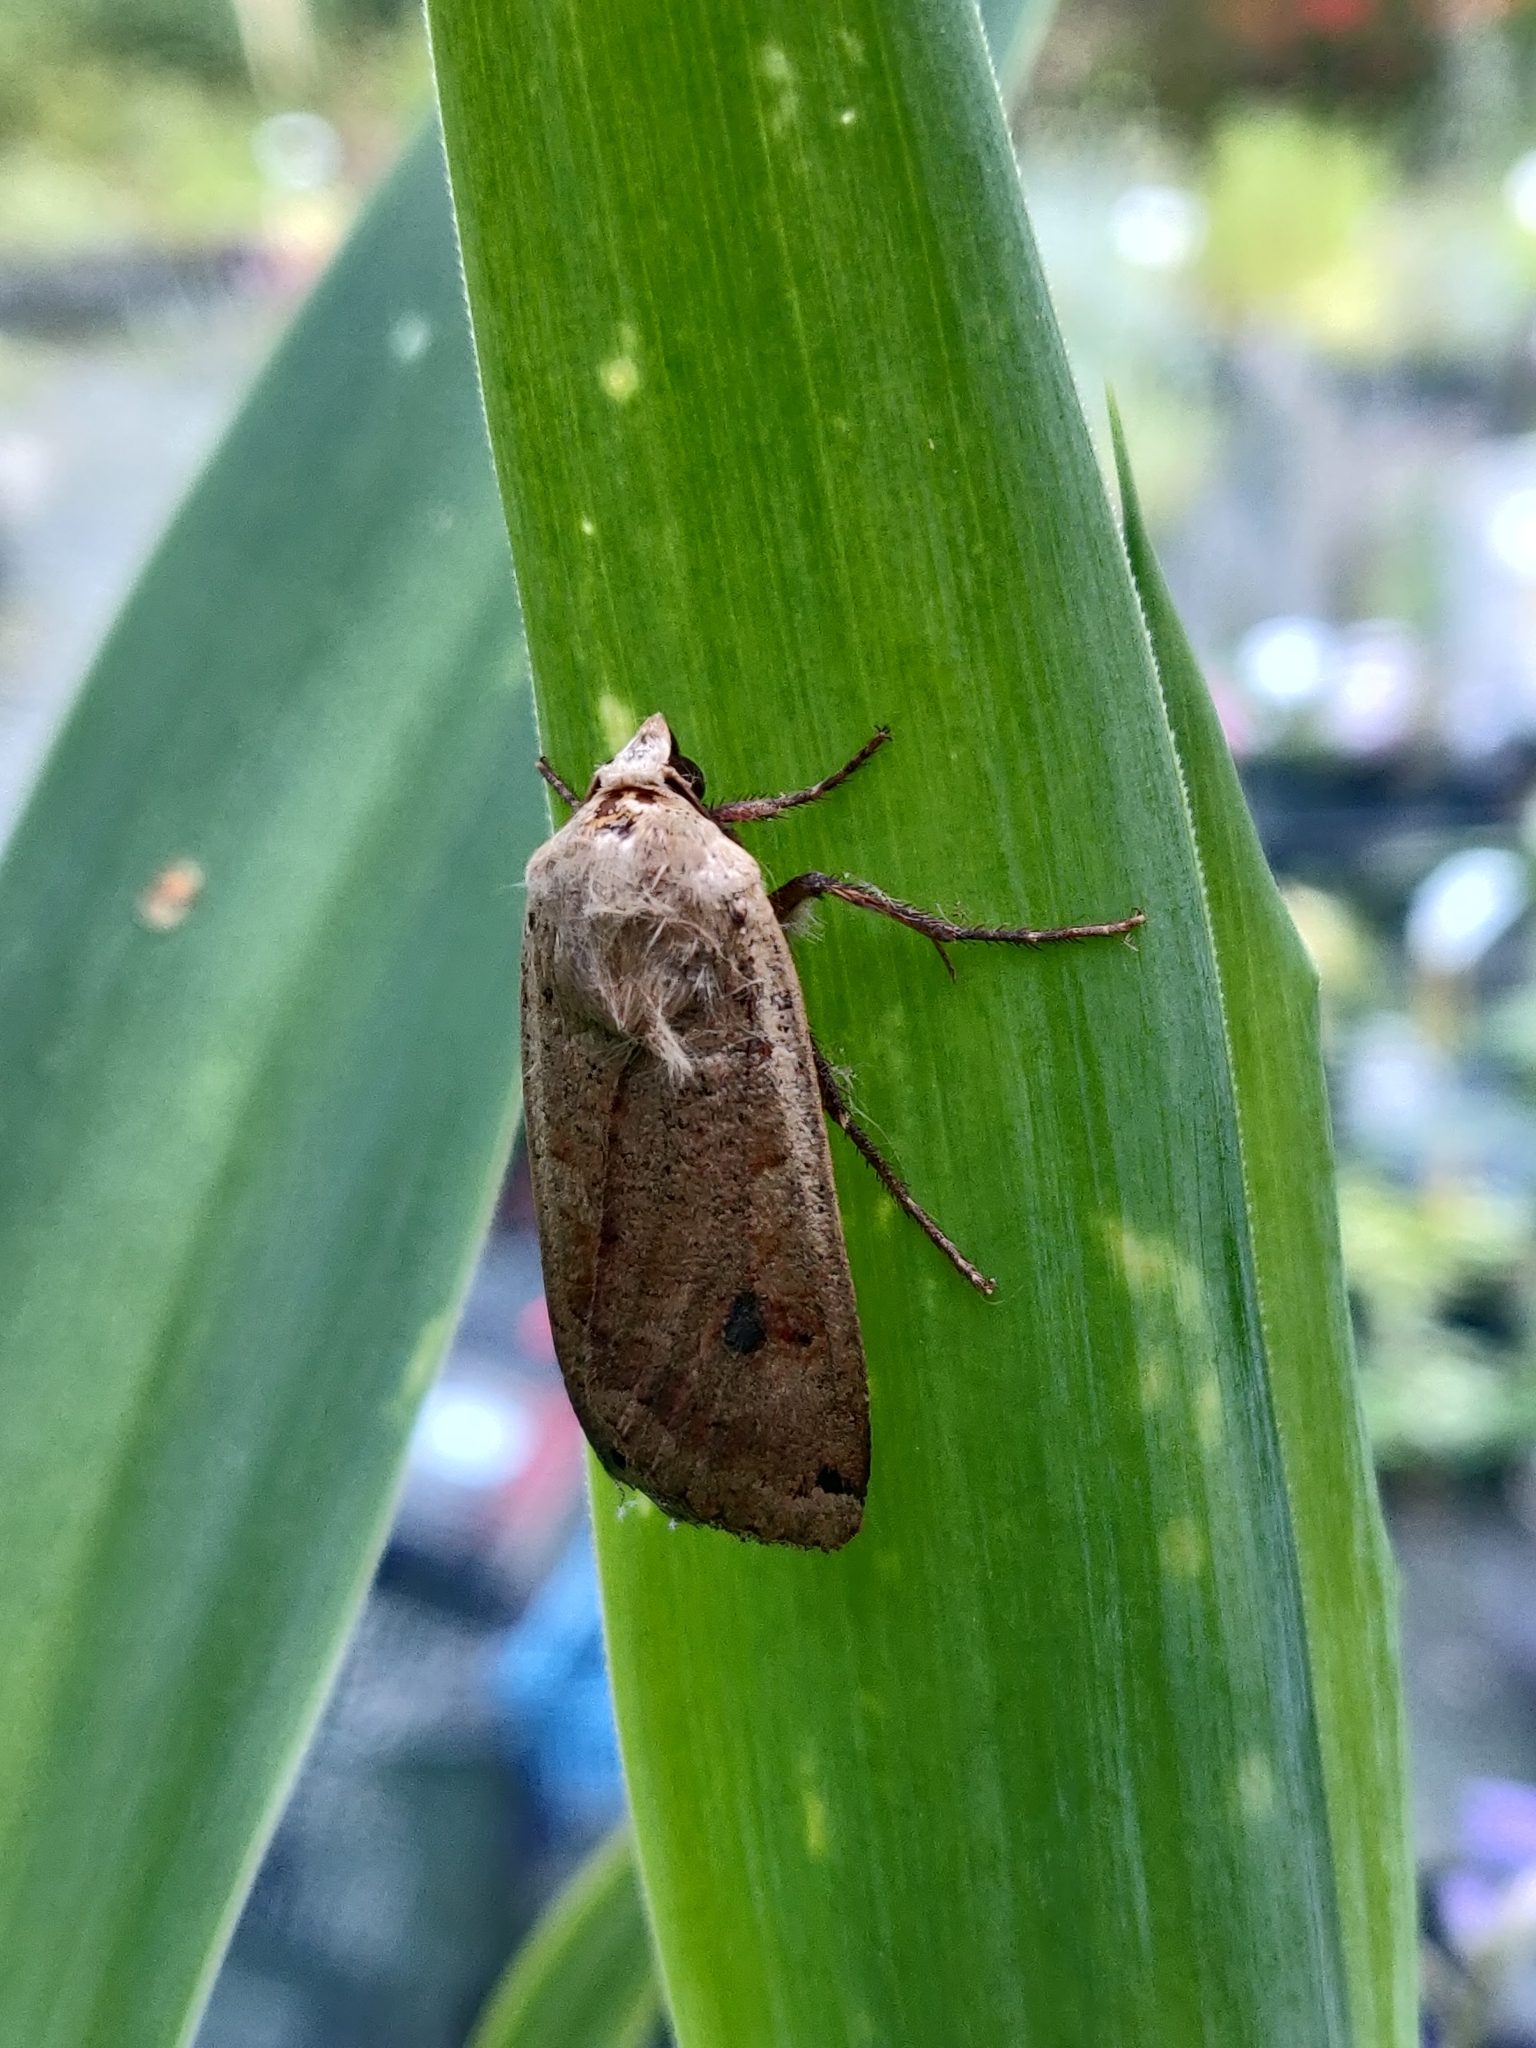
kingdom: Animalia
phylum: Arthropoda
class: Insecta
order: Lepidoptera
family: Noctuidae
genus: Noctua
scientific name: Noctua pronuba
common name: Large yellow underwing
